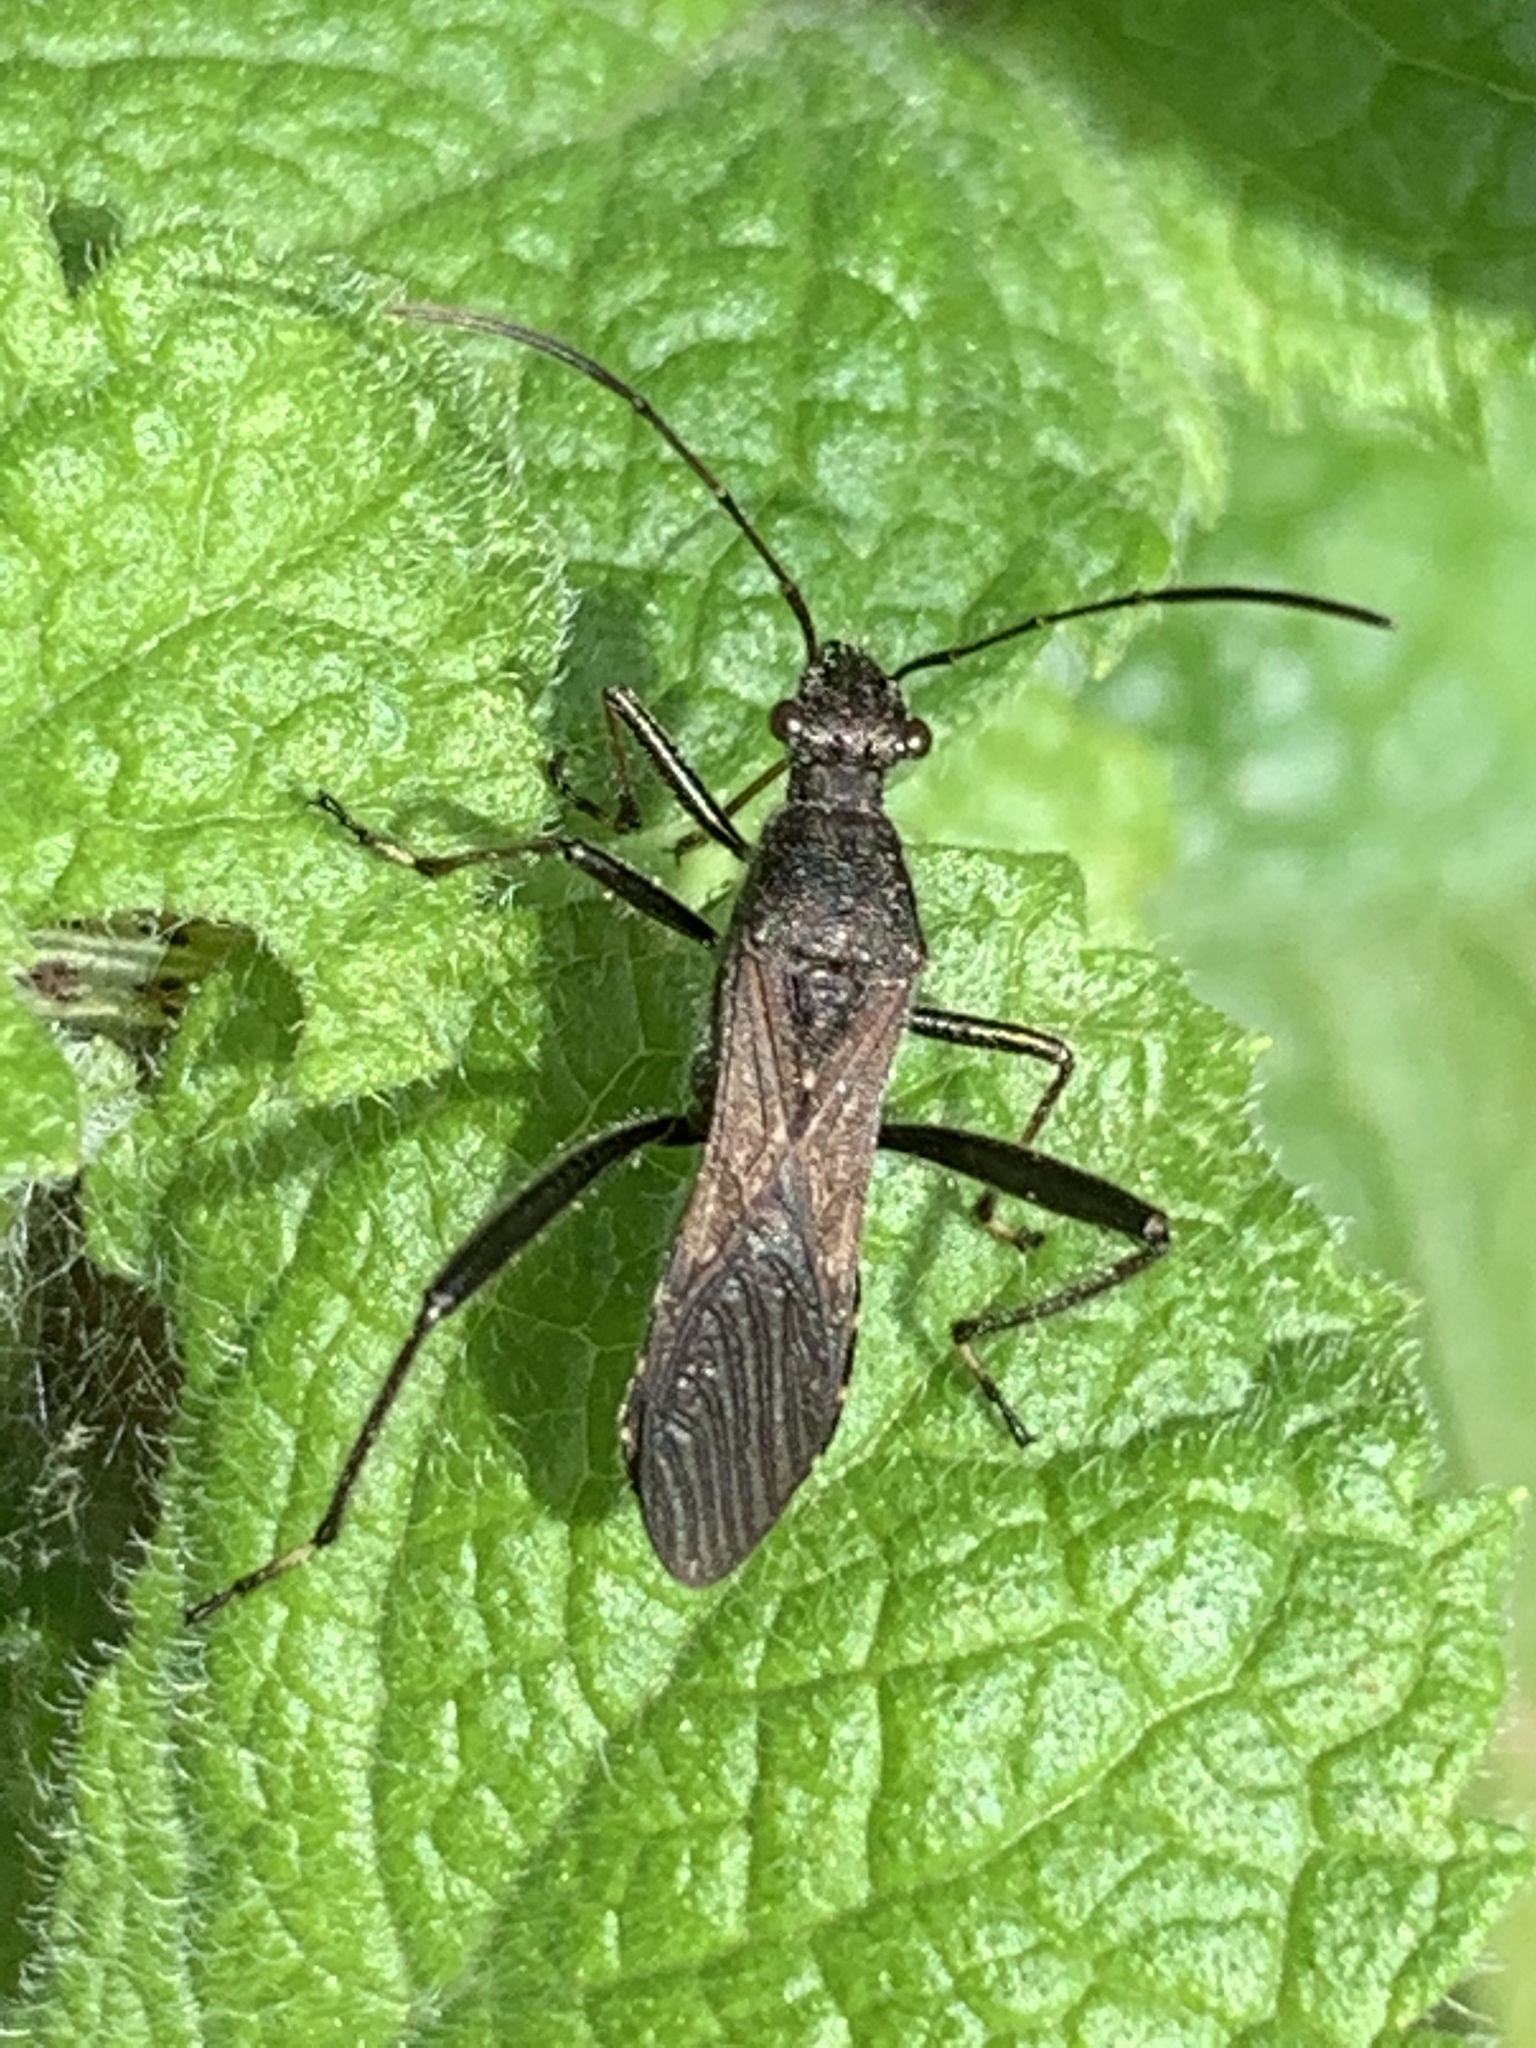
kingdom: Animalia
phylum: Arthropoda
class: Insecta
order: Hemiptera
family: Alydidae
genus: Alydus
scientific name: Alydus eurinus
